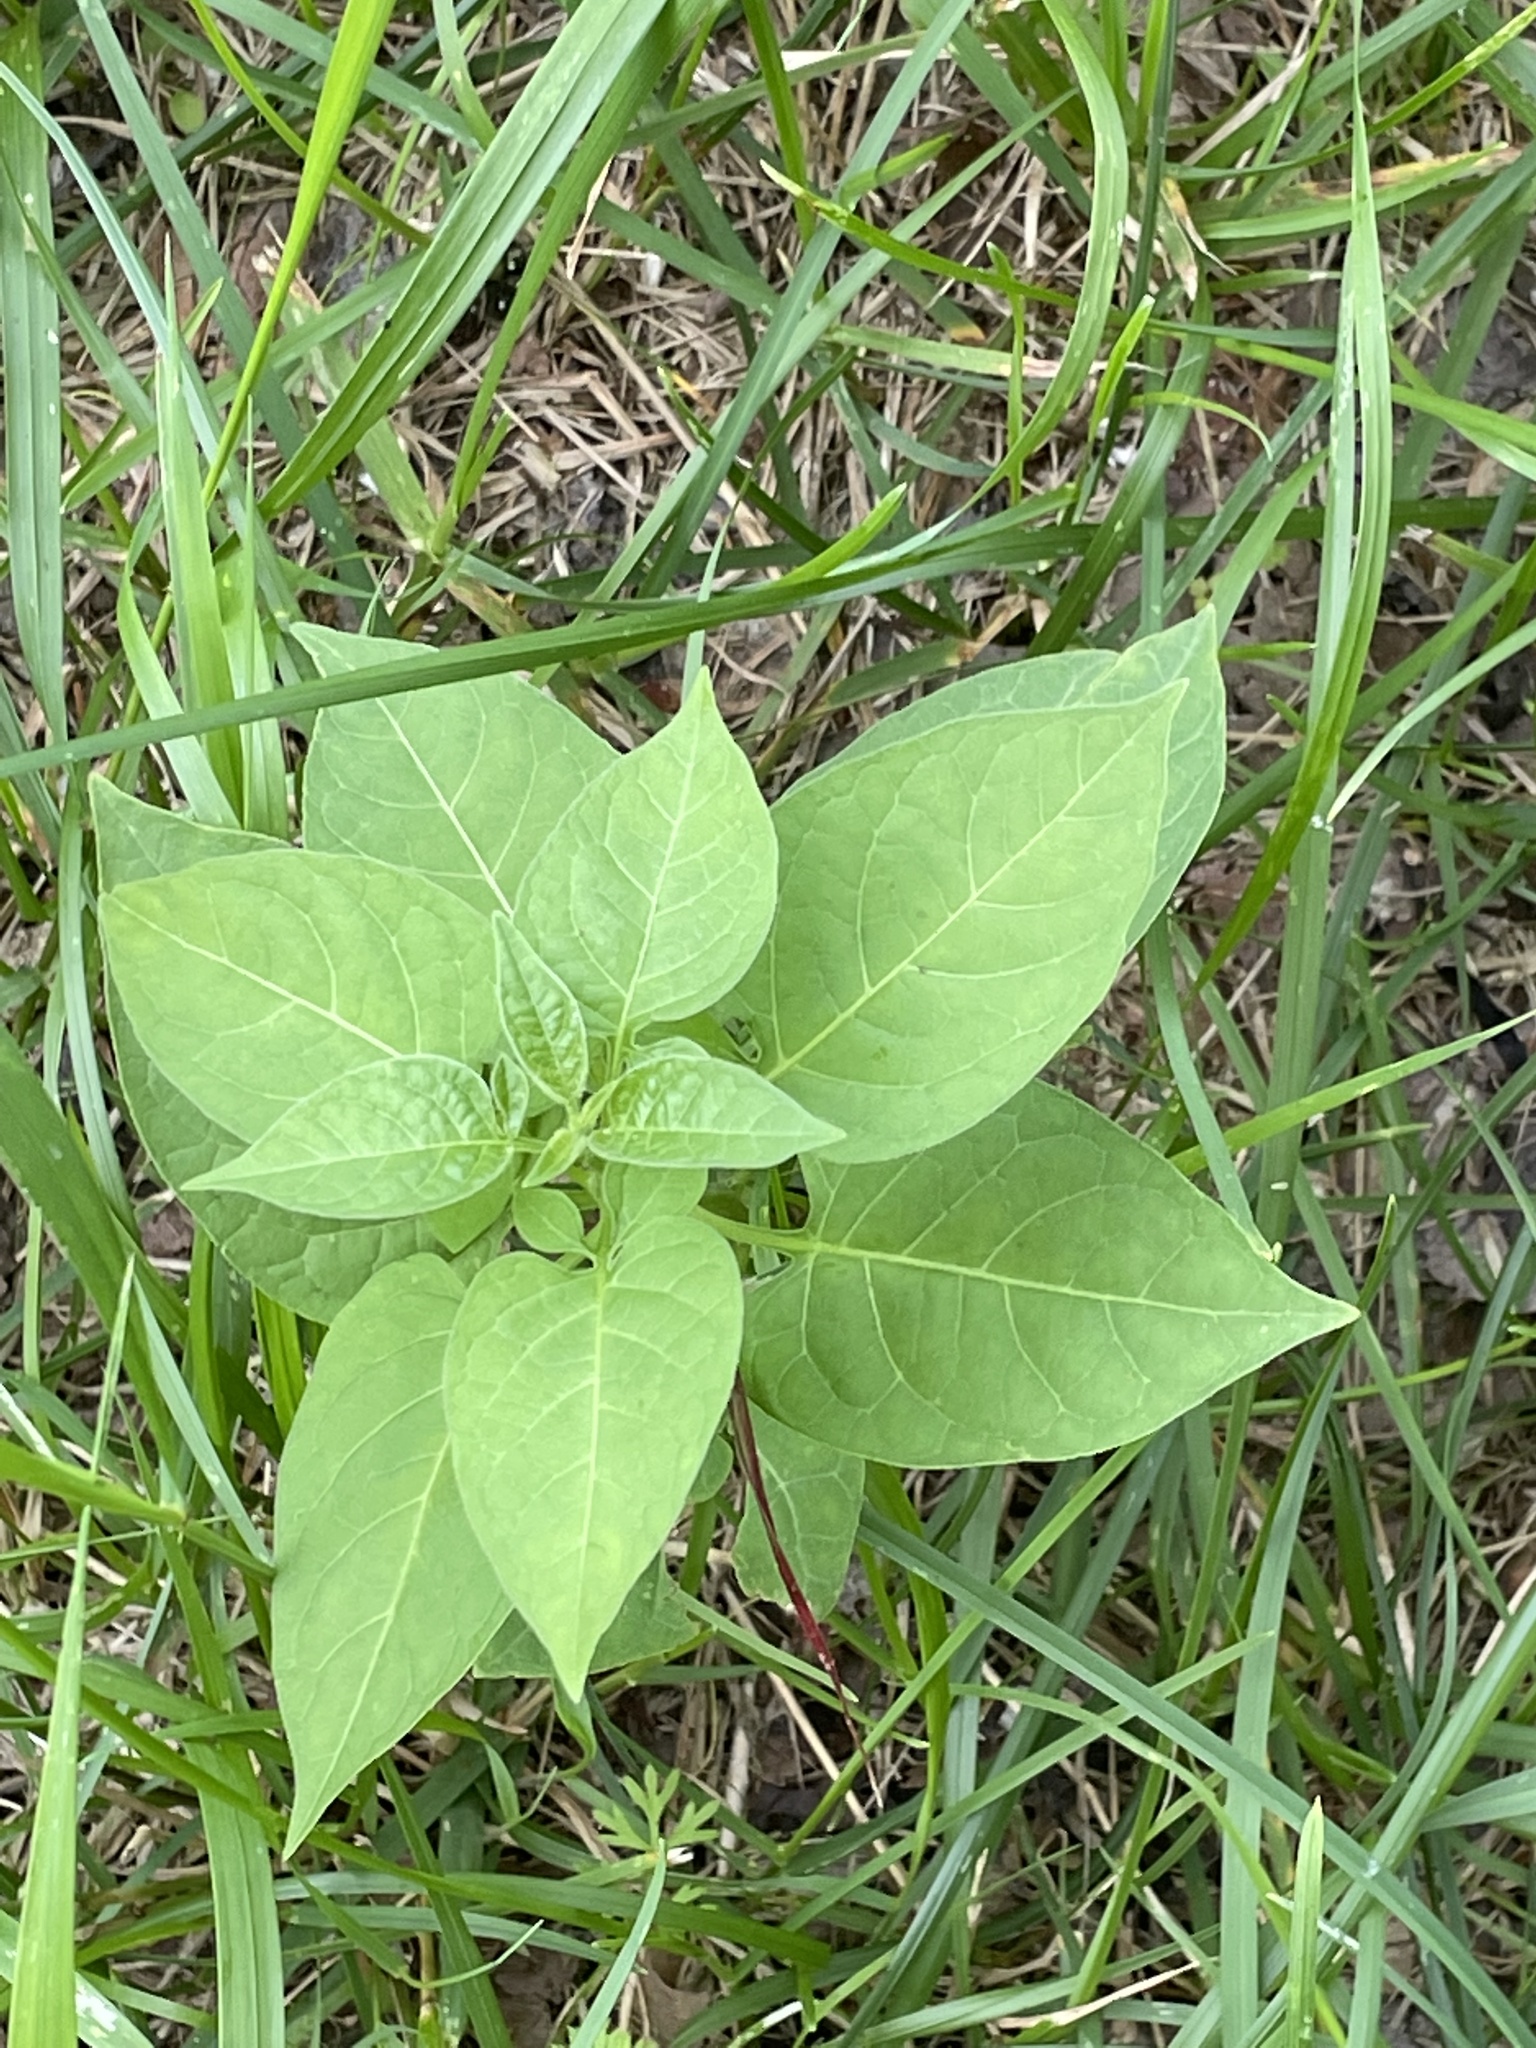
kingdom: Plantae
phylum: Tracheophyta
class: Magnoliopsida
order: Solanales
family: Solanaceae
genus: Solanum
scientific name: Solanum dulcamara
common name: Climbing nightshade
